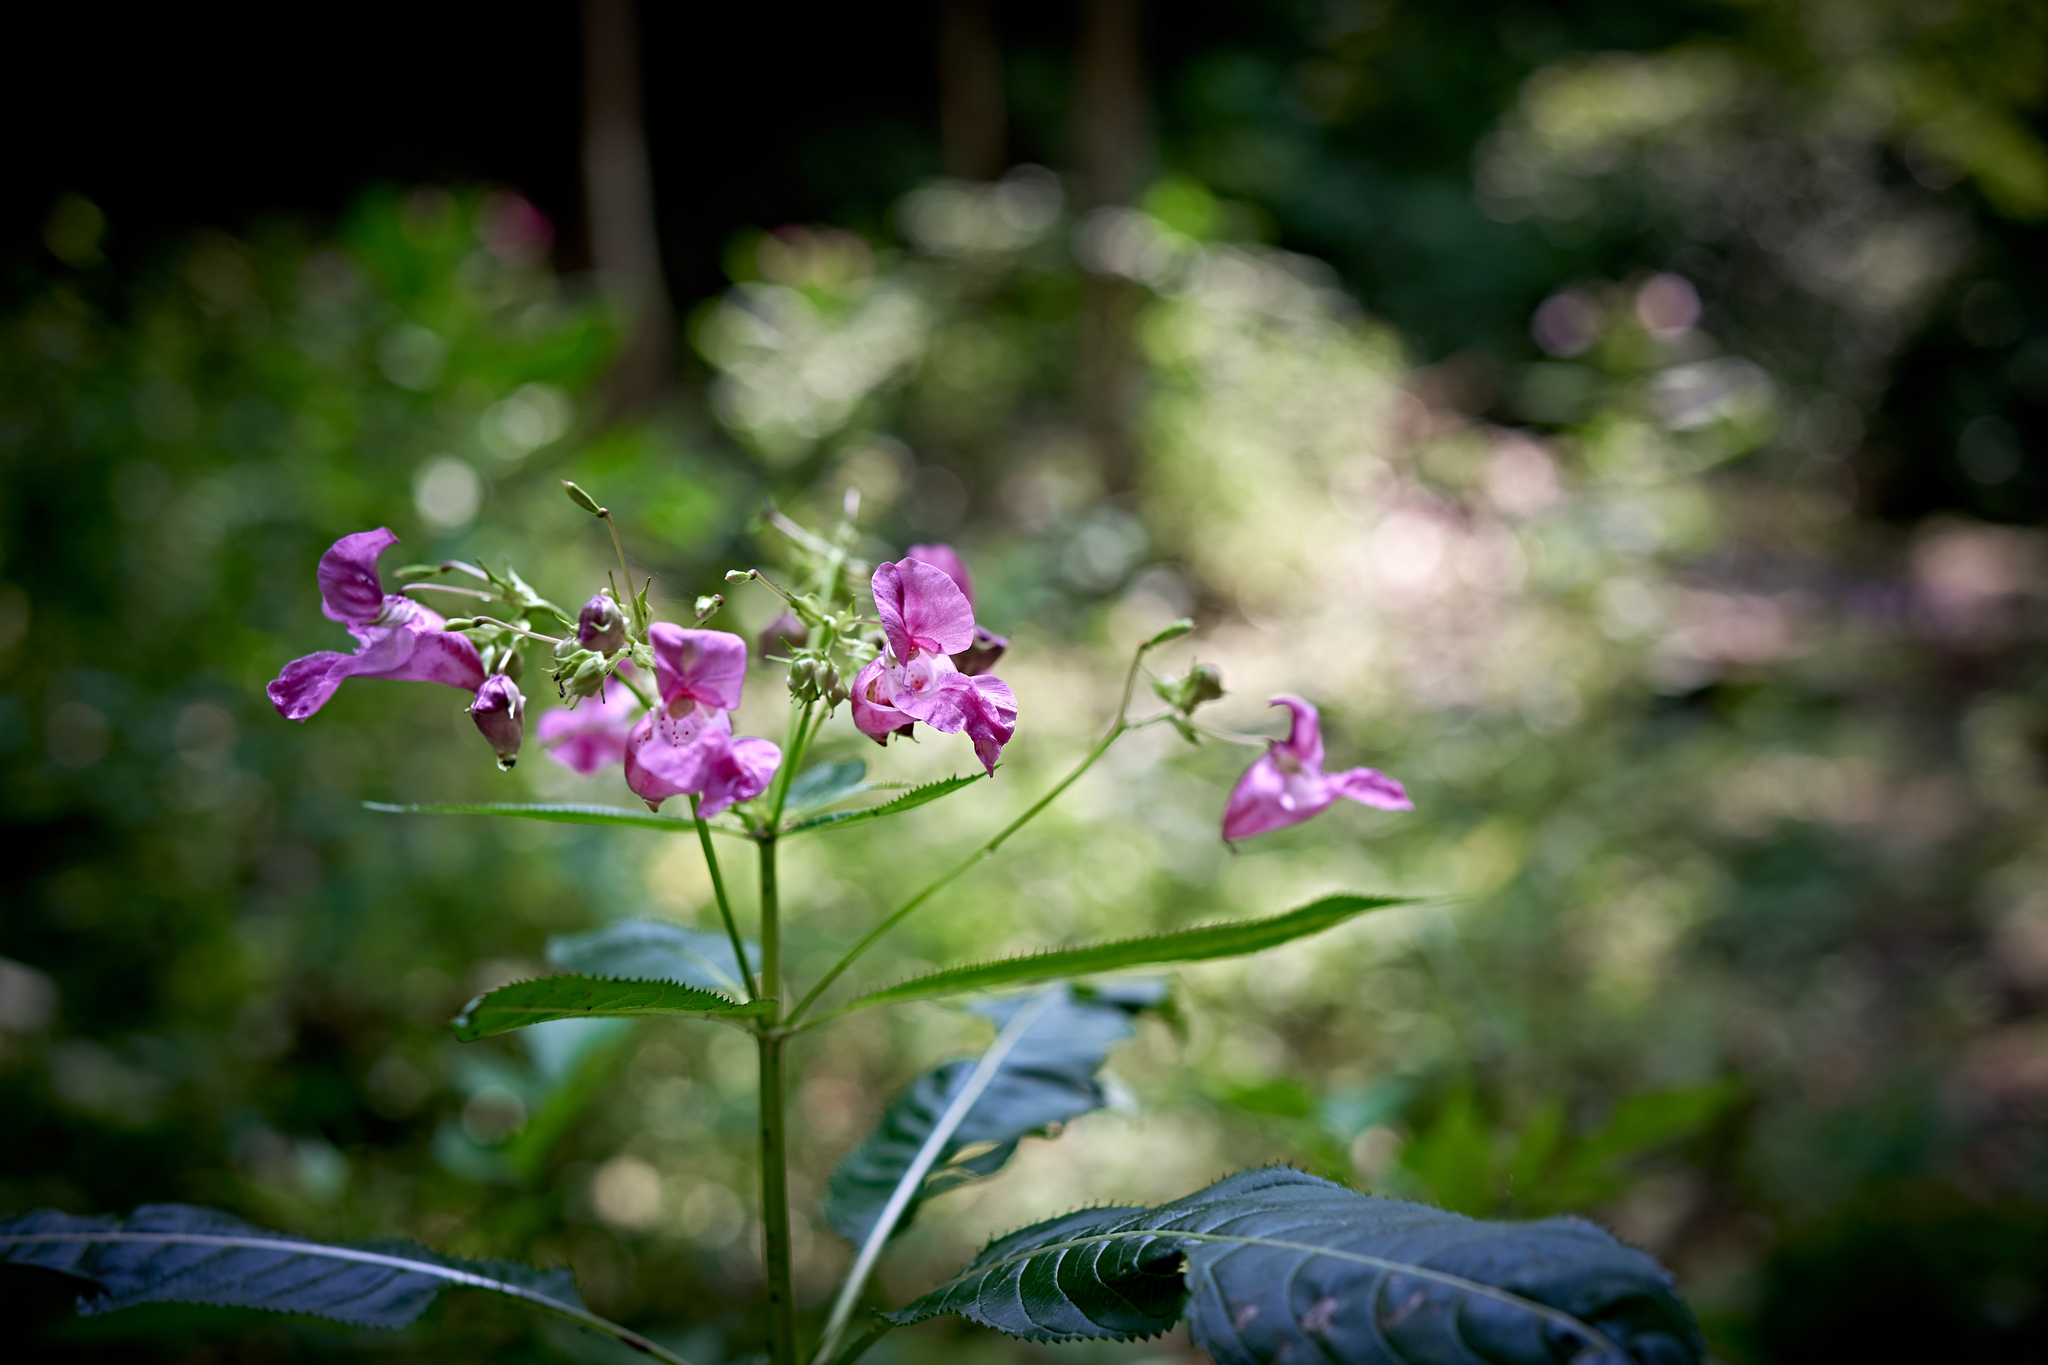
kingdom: Plantae
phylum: Tracheophyta
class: Magnoliopsida
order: Ericales
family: Balsaminaceae
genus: Impatiens
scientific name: Impatiens glandulifera
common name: Himalayan balsam
